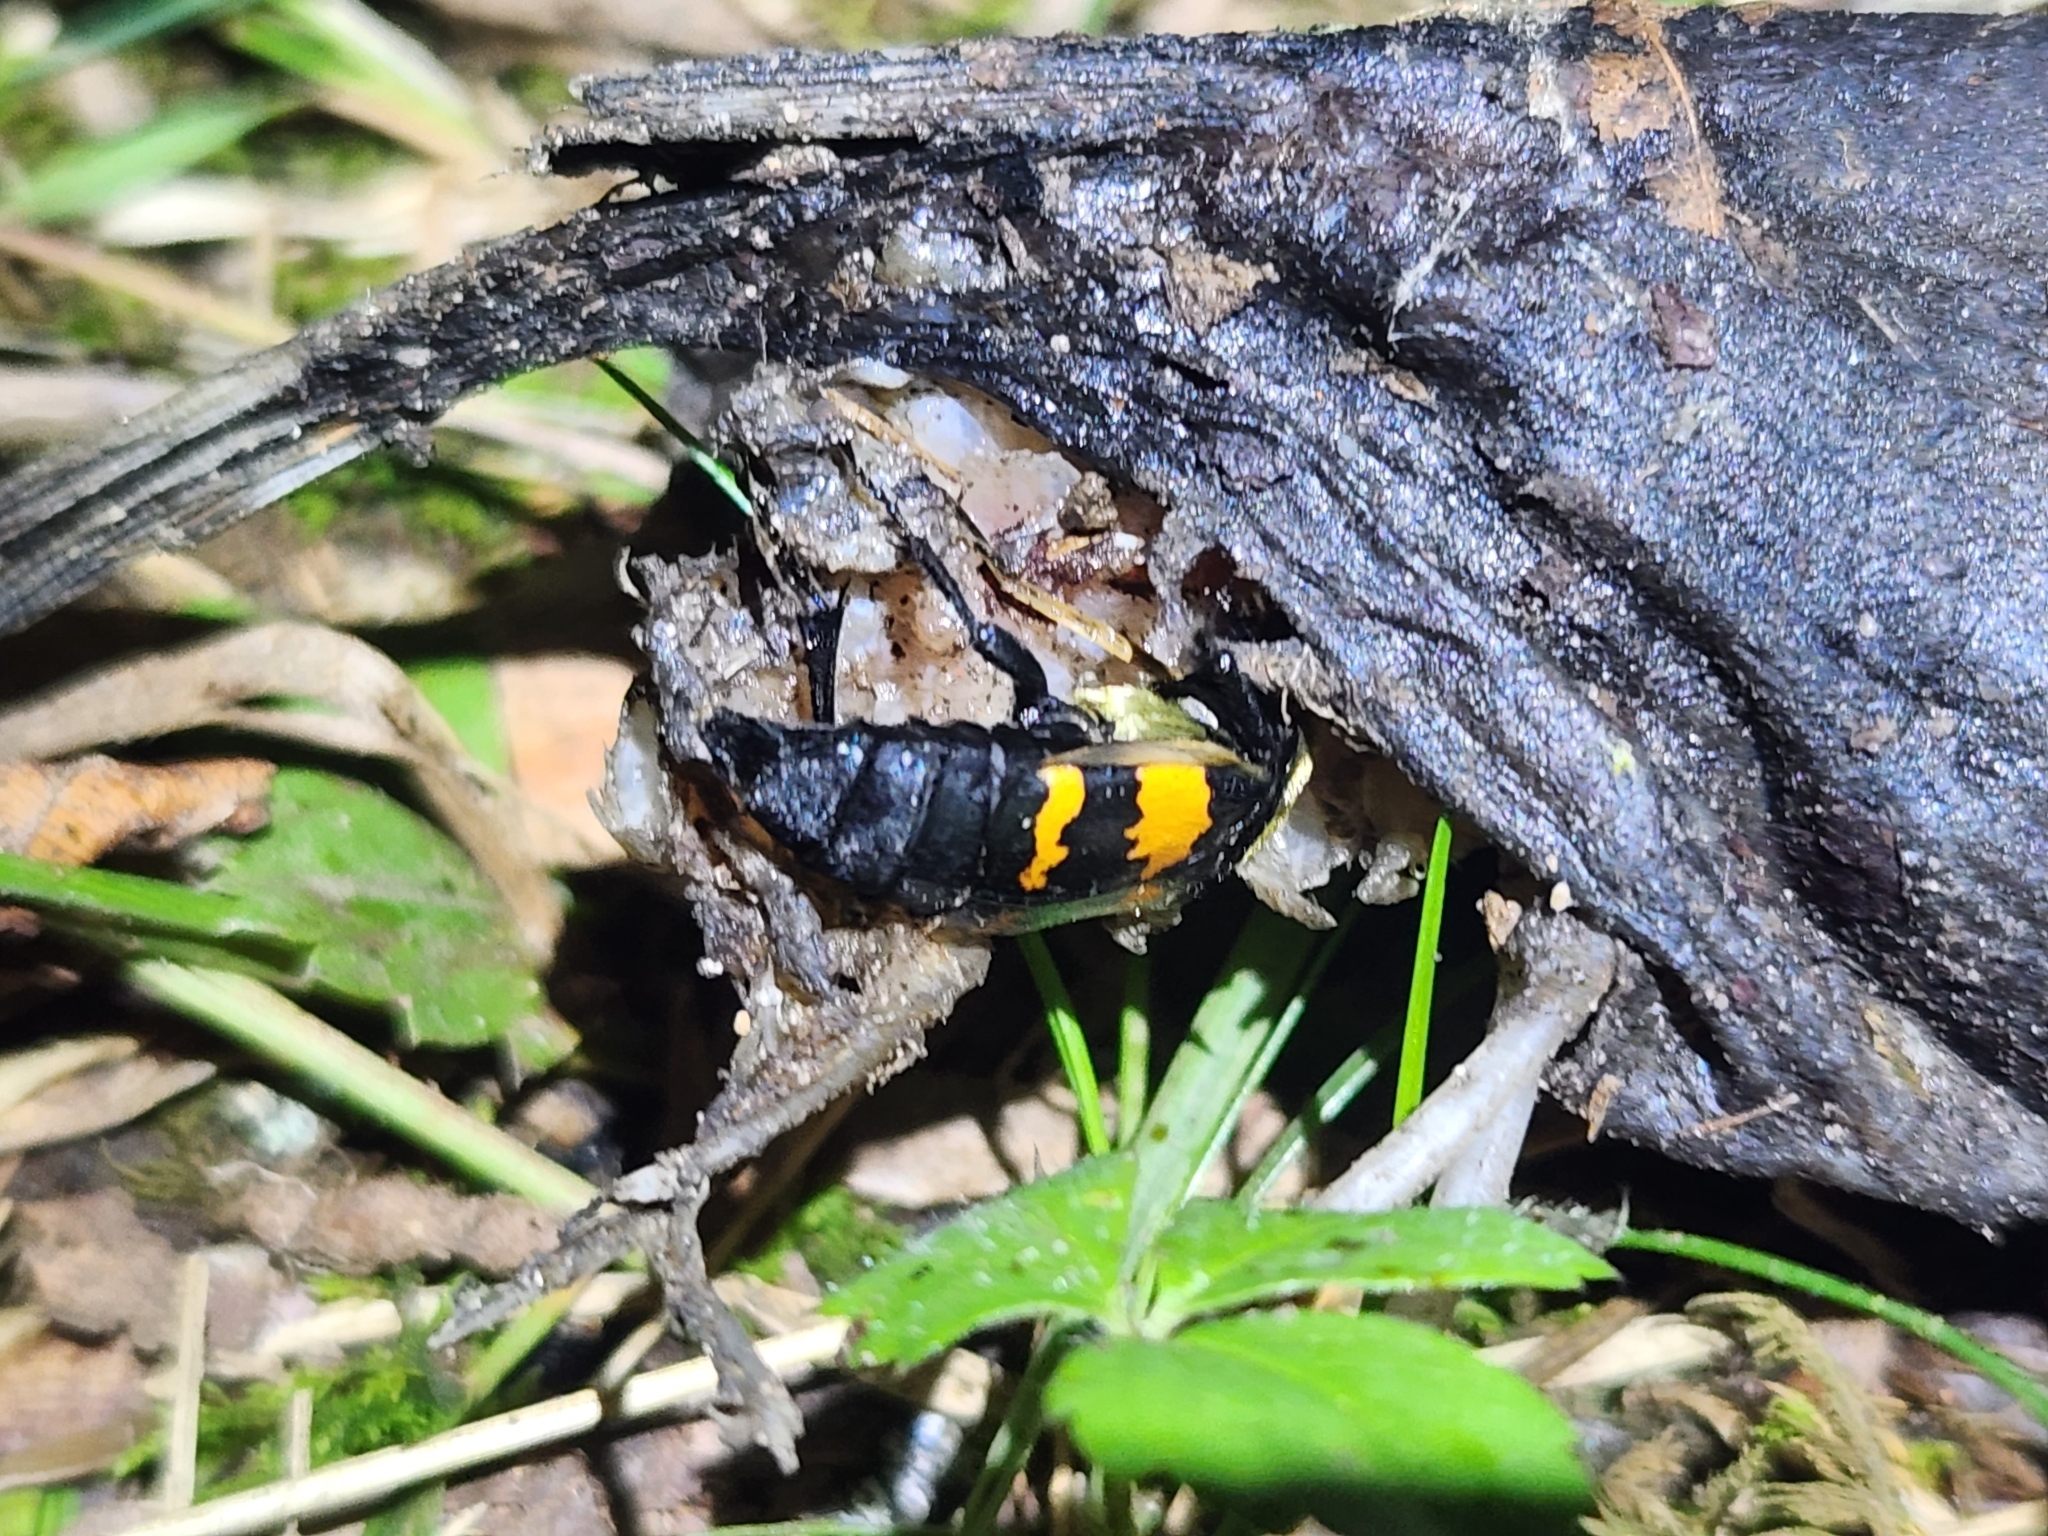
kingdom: Animalia
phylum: Arthropoda
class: Insecta
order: Coleoptera
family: Staphylinidae
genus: Nicrophorus
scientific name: Nicrophorus tomentosus
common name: Tomentose burying beetle
